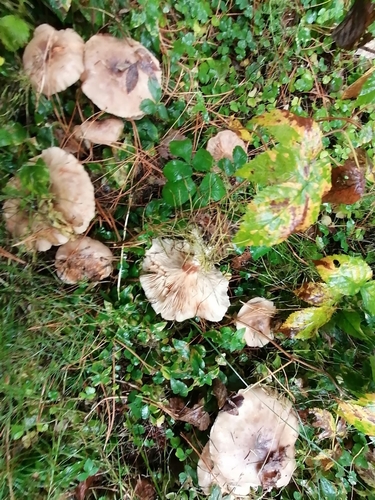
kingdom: Fungi
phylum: Basidiomycota
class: Agaricomycetes
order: Agaricales
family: Tricholomataceae
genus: Clitocybe
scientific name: Clitocybe nebularis
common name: Clouded agaric
